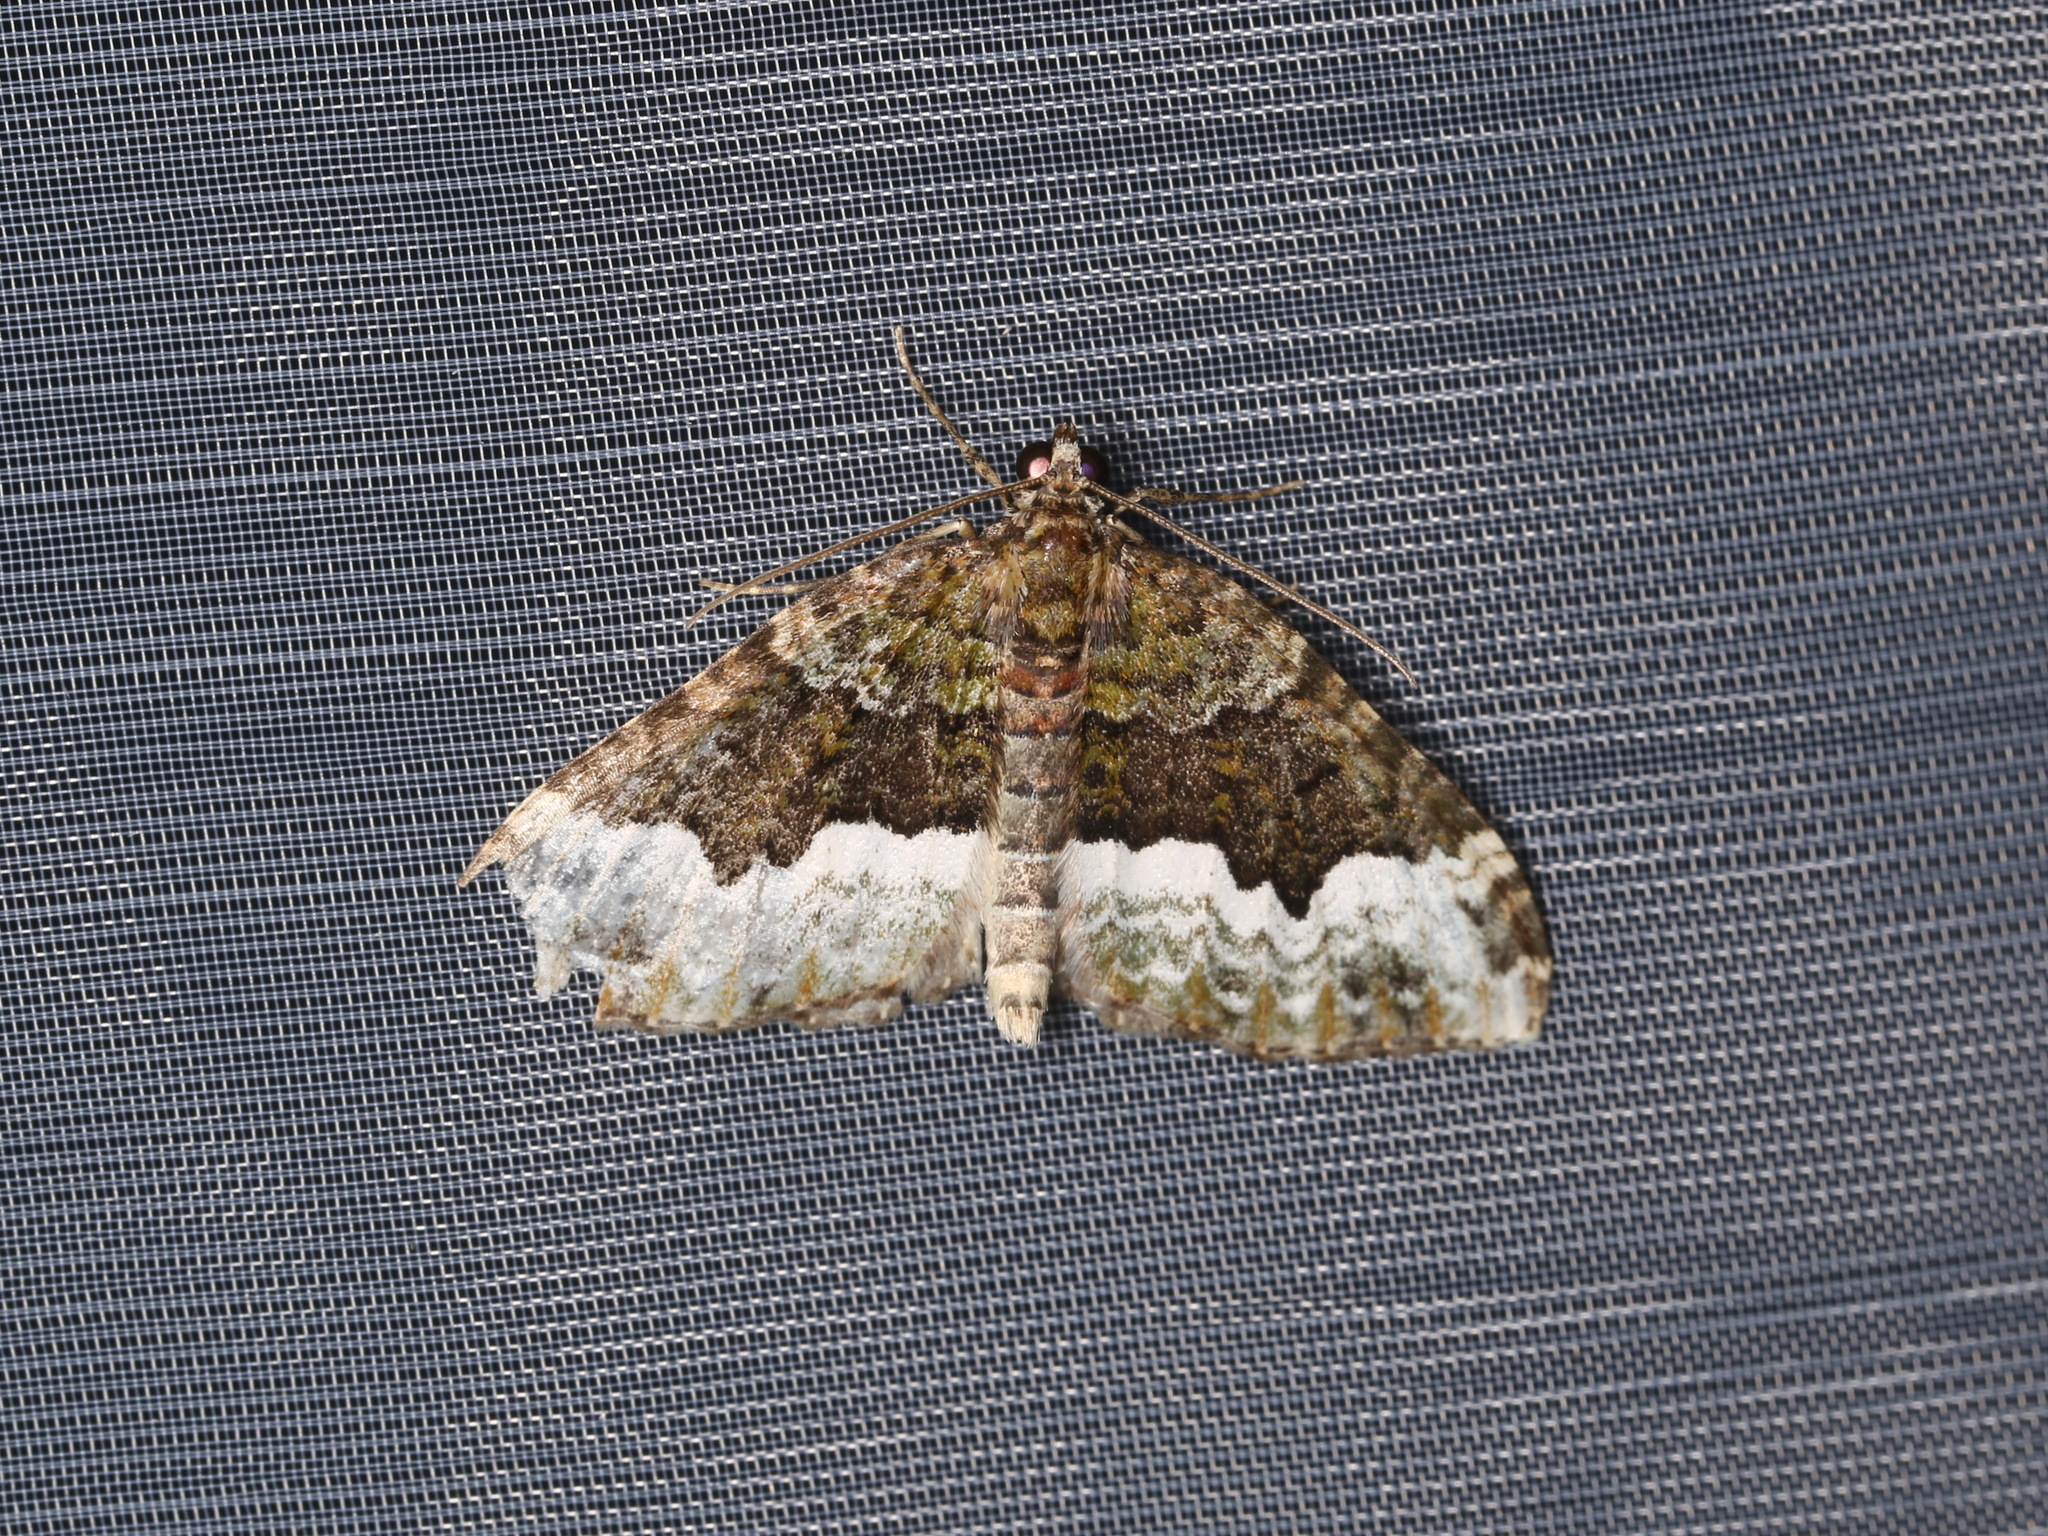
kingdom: Animalia
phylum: Arthropoda
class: Insecta
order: Lepidoptera
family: Geometridae
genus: Euphyia
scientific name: Euphyia biangulata
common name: Cloaked carpet
